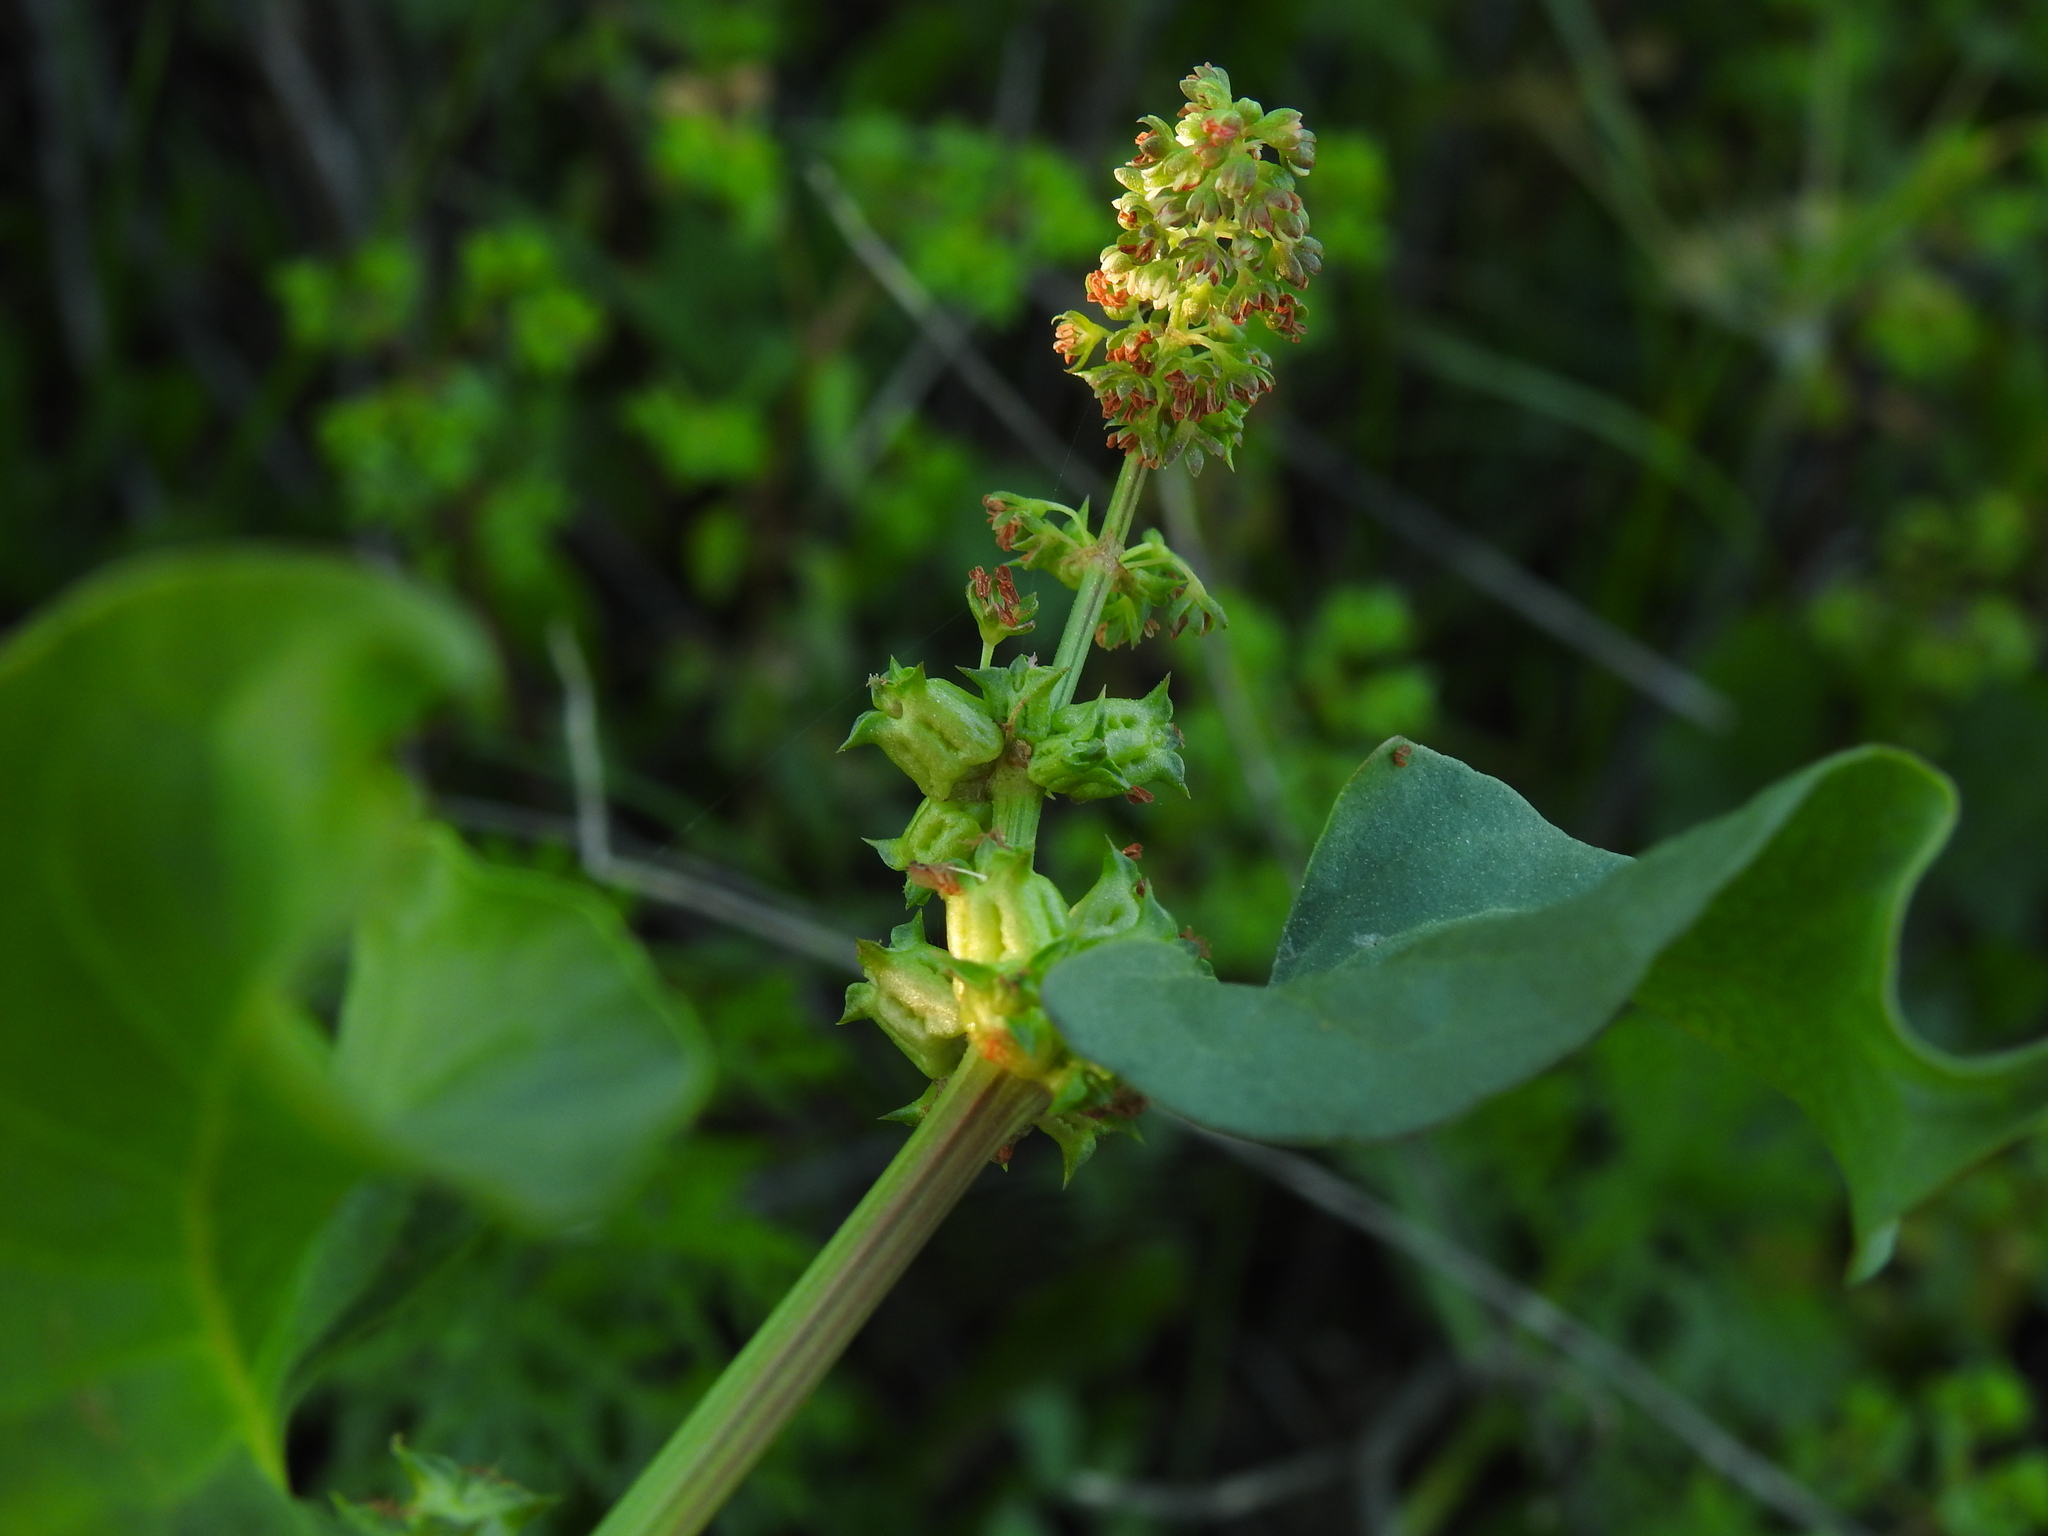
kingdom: Plantae
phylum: Tracheophyta
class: Magnoliopsida
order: Caryophyllales
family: Polygonaceae
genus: Rumex
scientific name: Rumex spinosus
